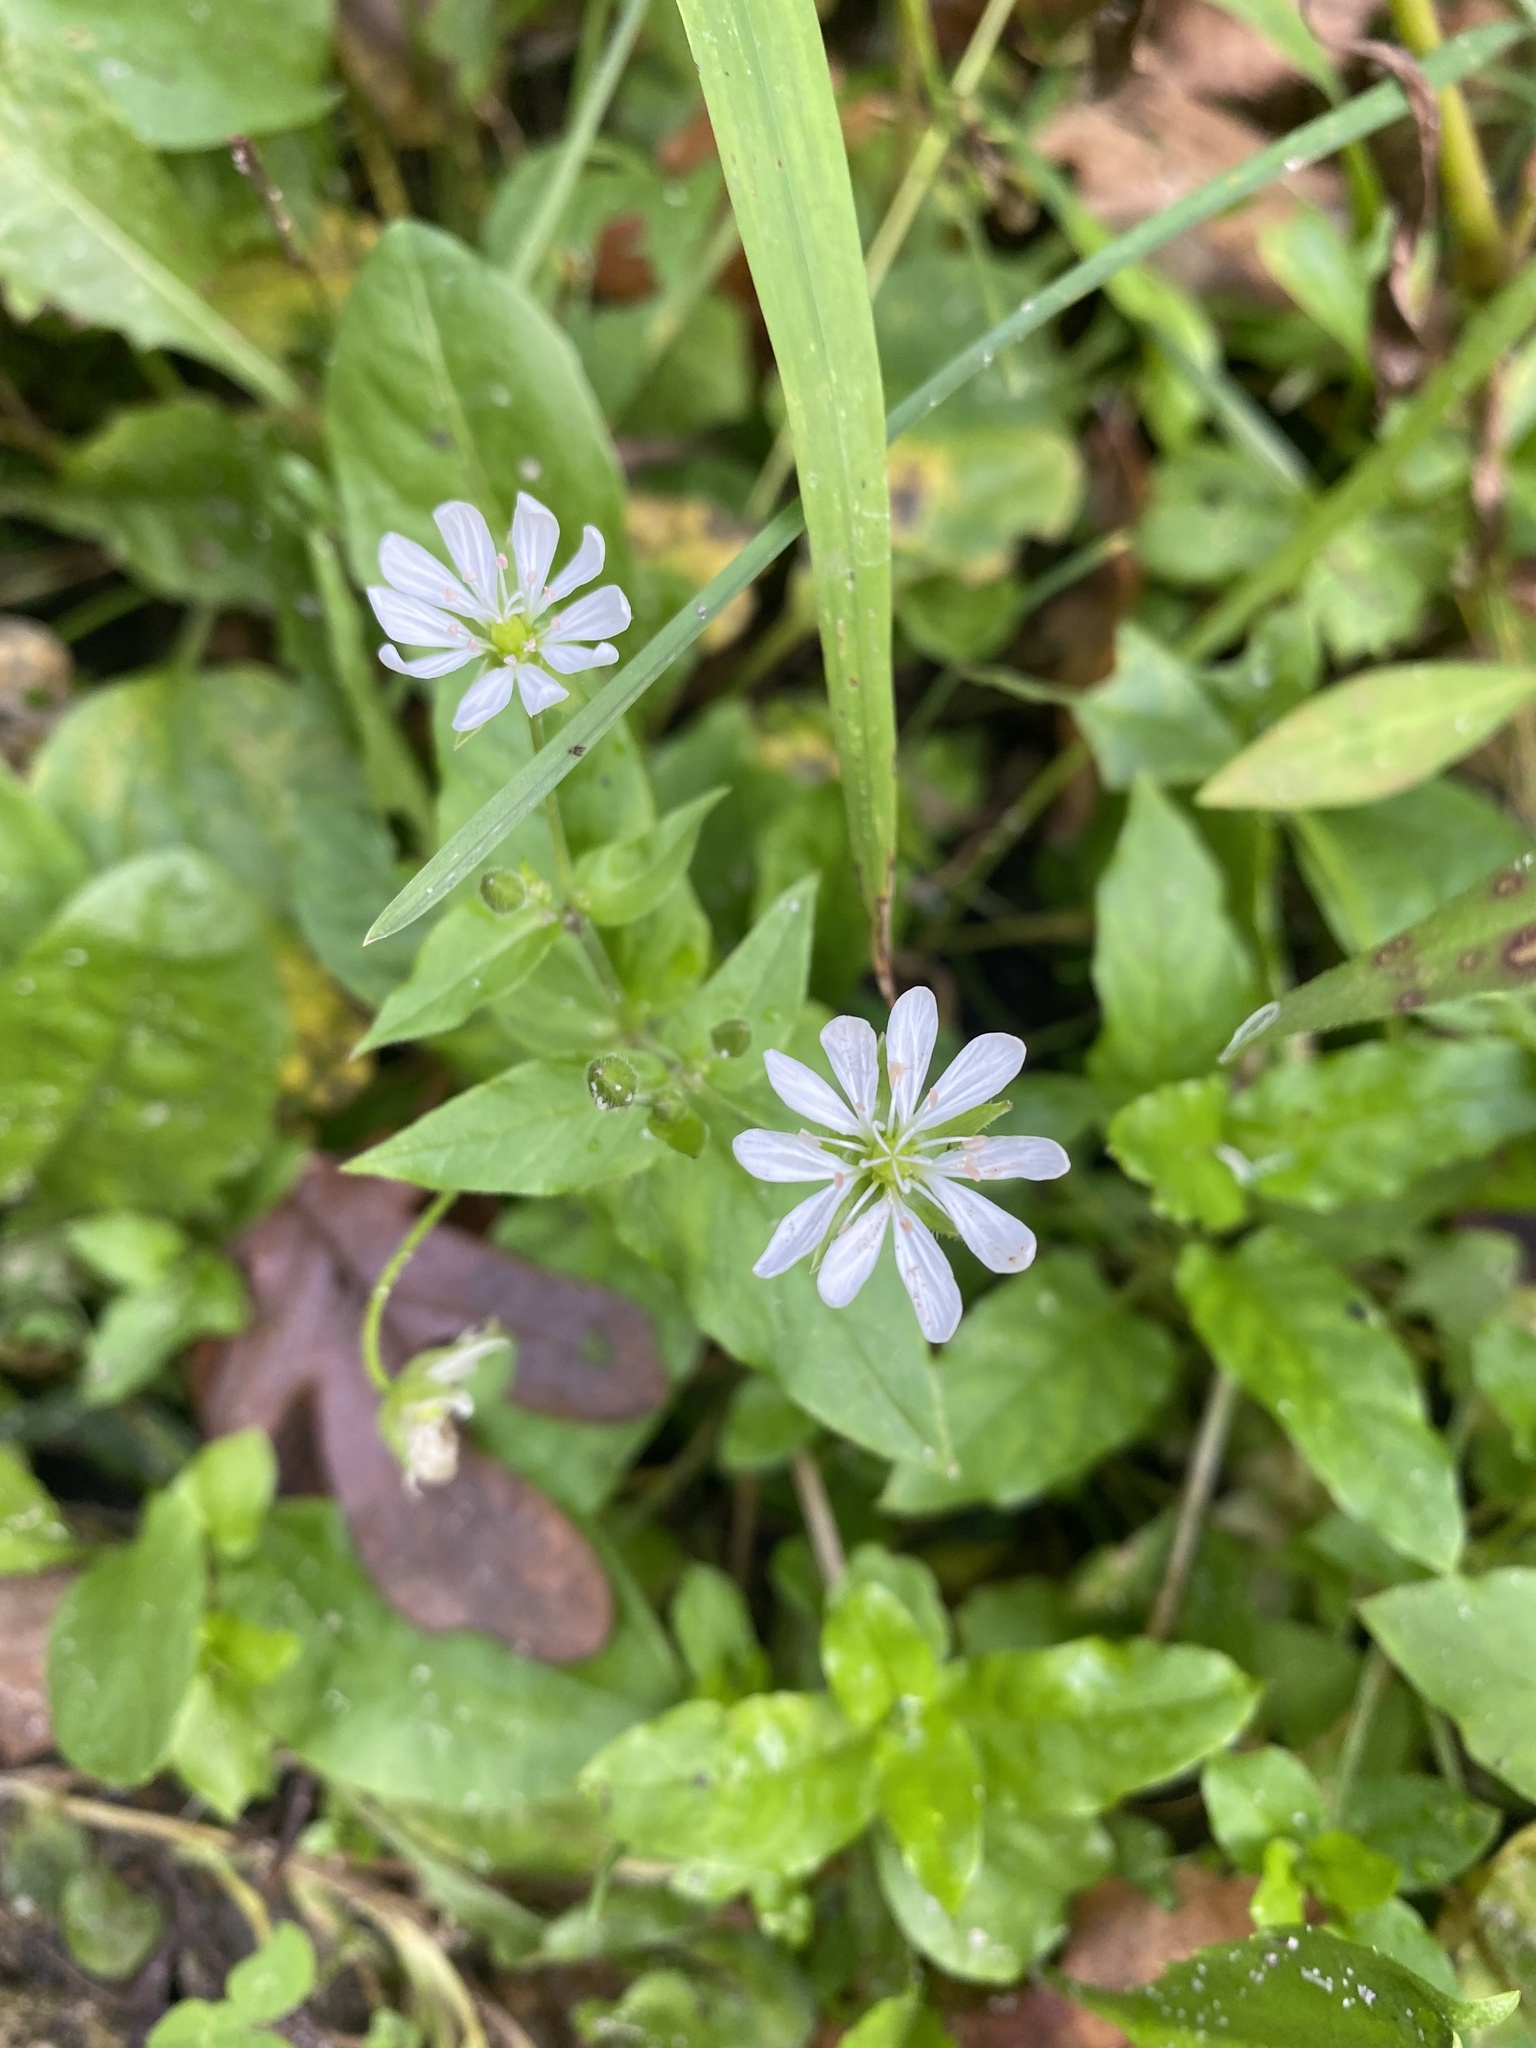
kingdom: Plantae
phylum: Tracheophyta
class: Magnoliopsida
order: Caryophyllales
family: Caryophyllaceae
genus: Stellaria
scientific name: Stellaria aquatica
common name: Water chickweed
